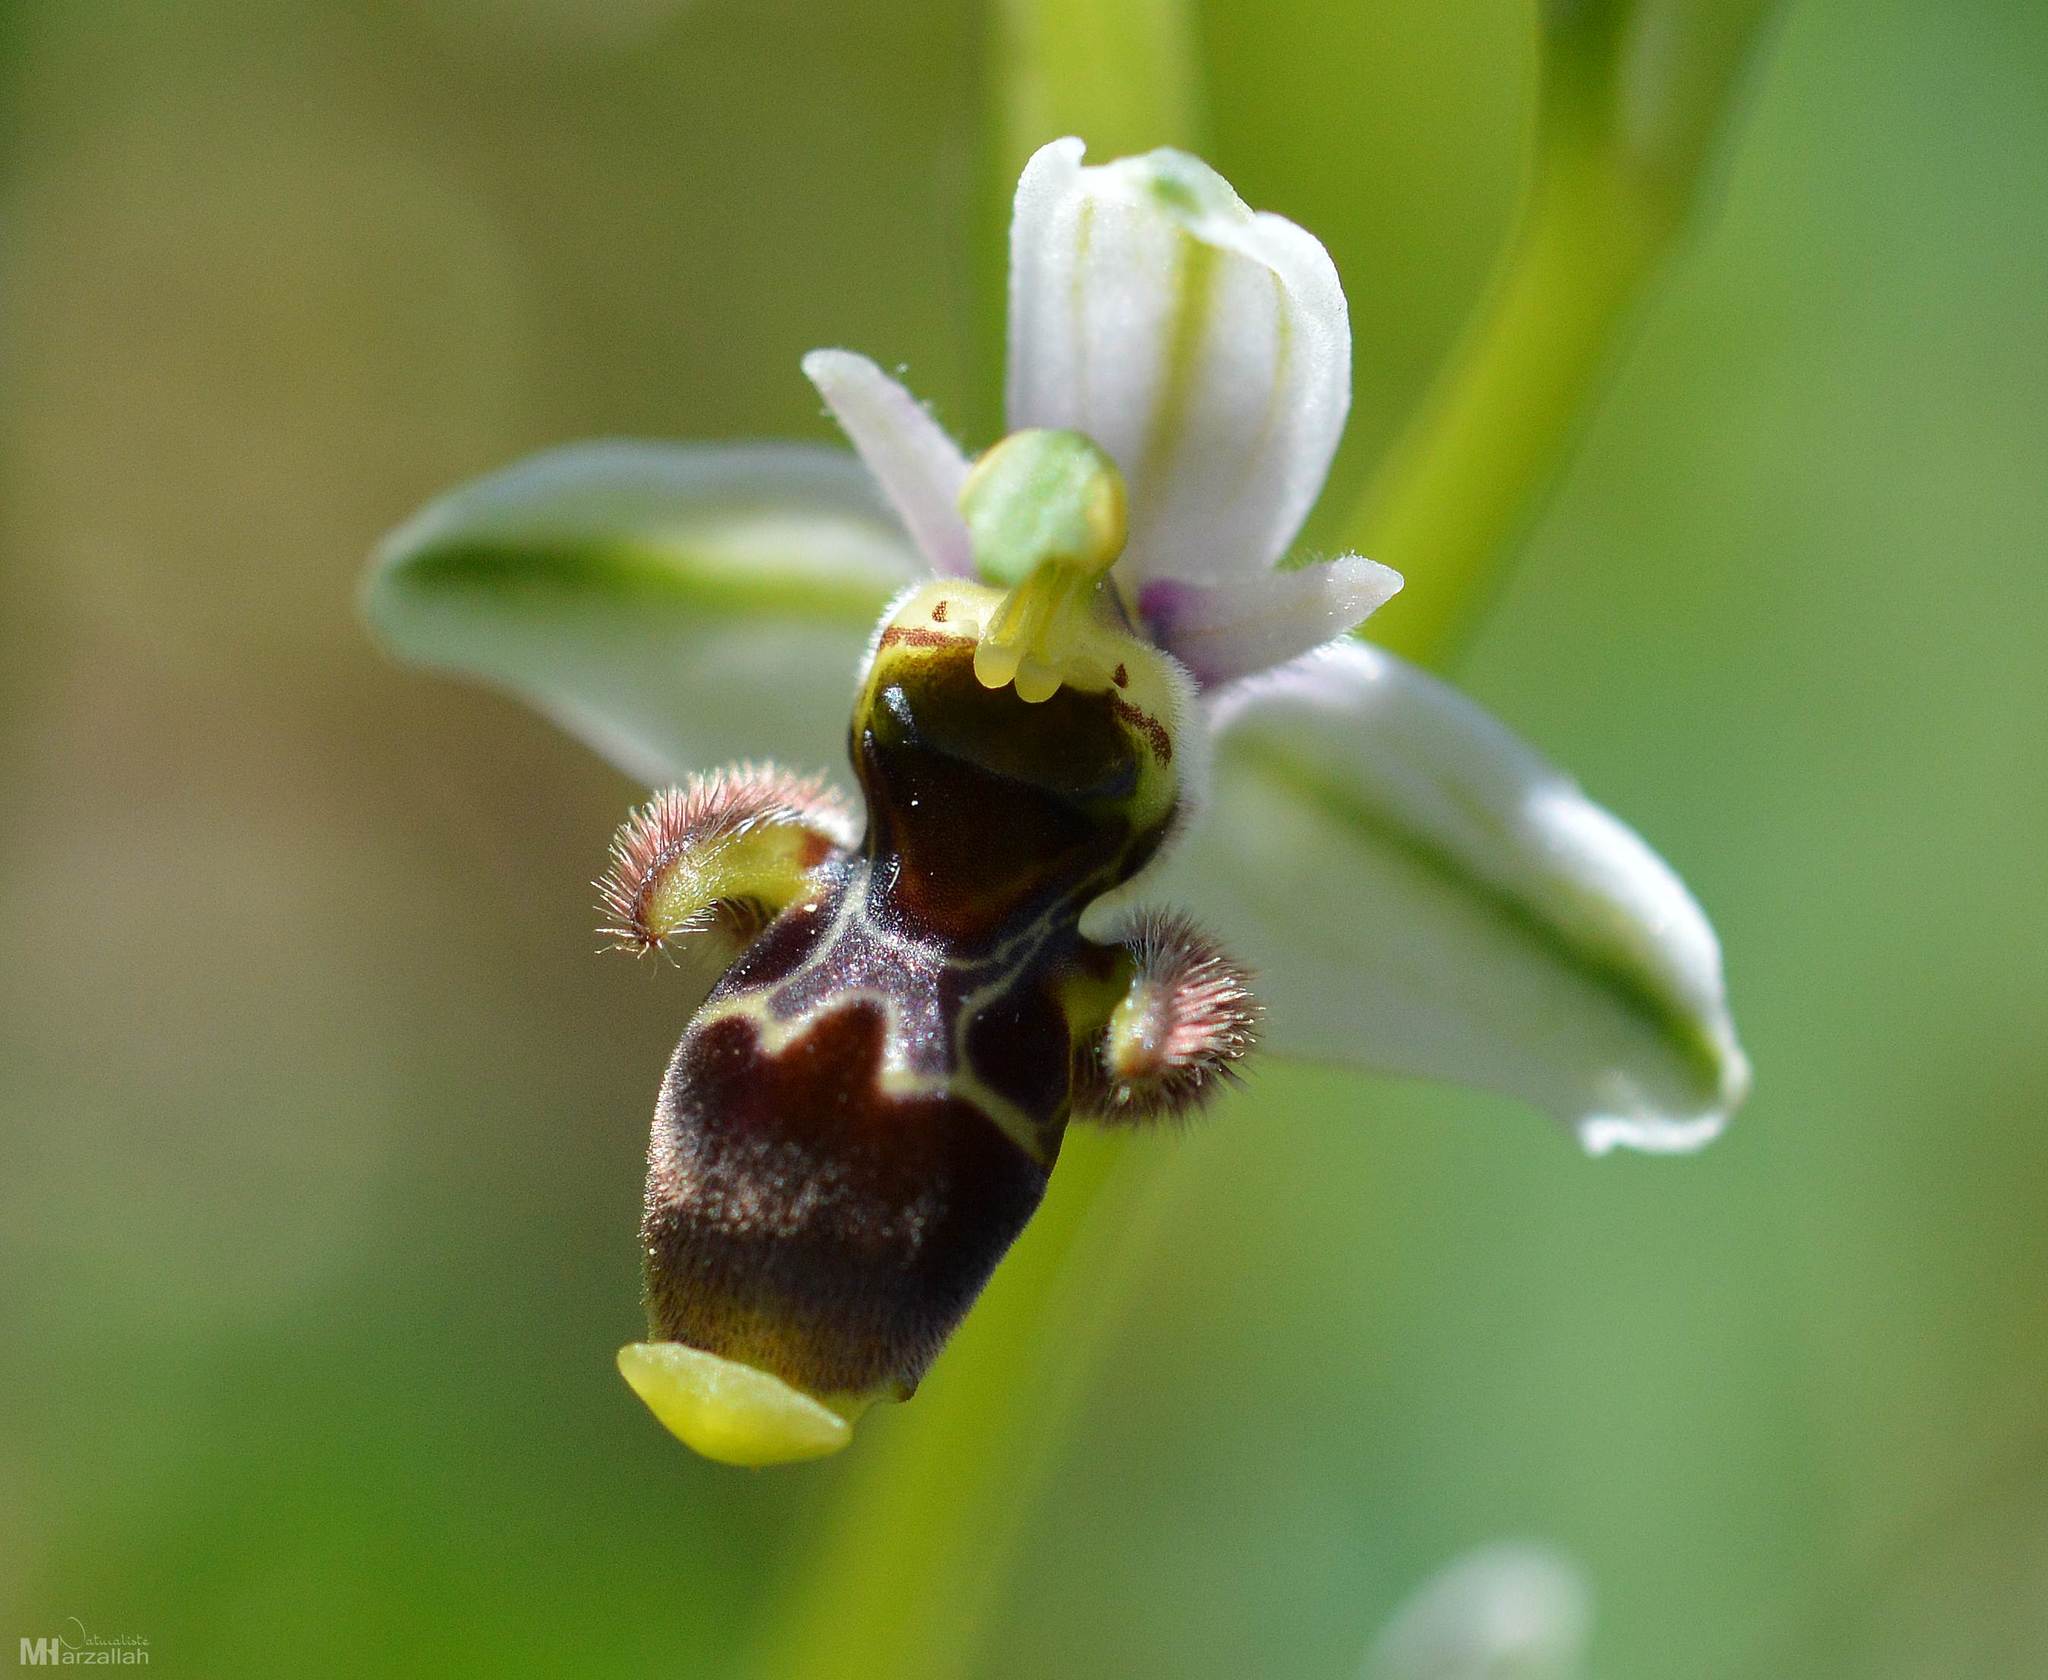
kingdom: Plantae
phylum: Tracheophyta
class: Liliopsida
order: Asparagales
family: Orchidaceae
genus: Ophrys
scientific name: Ophrys scolopax
